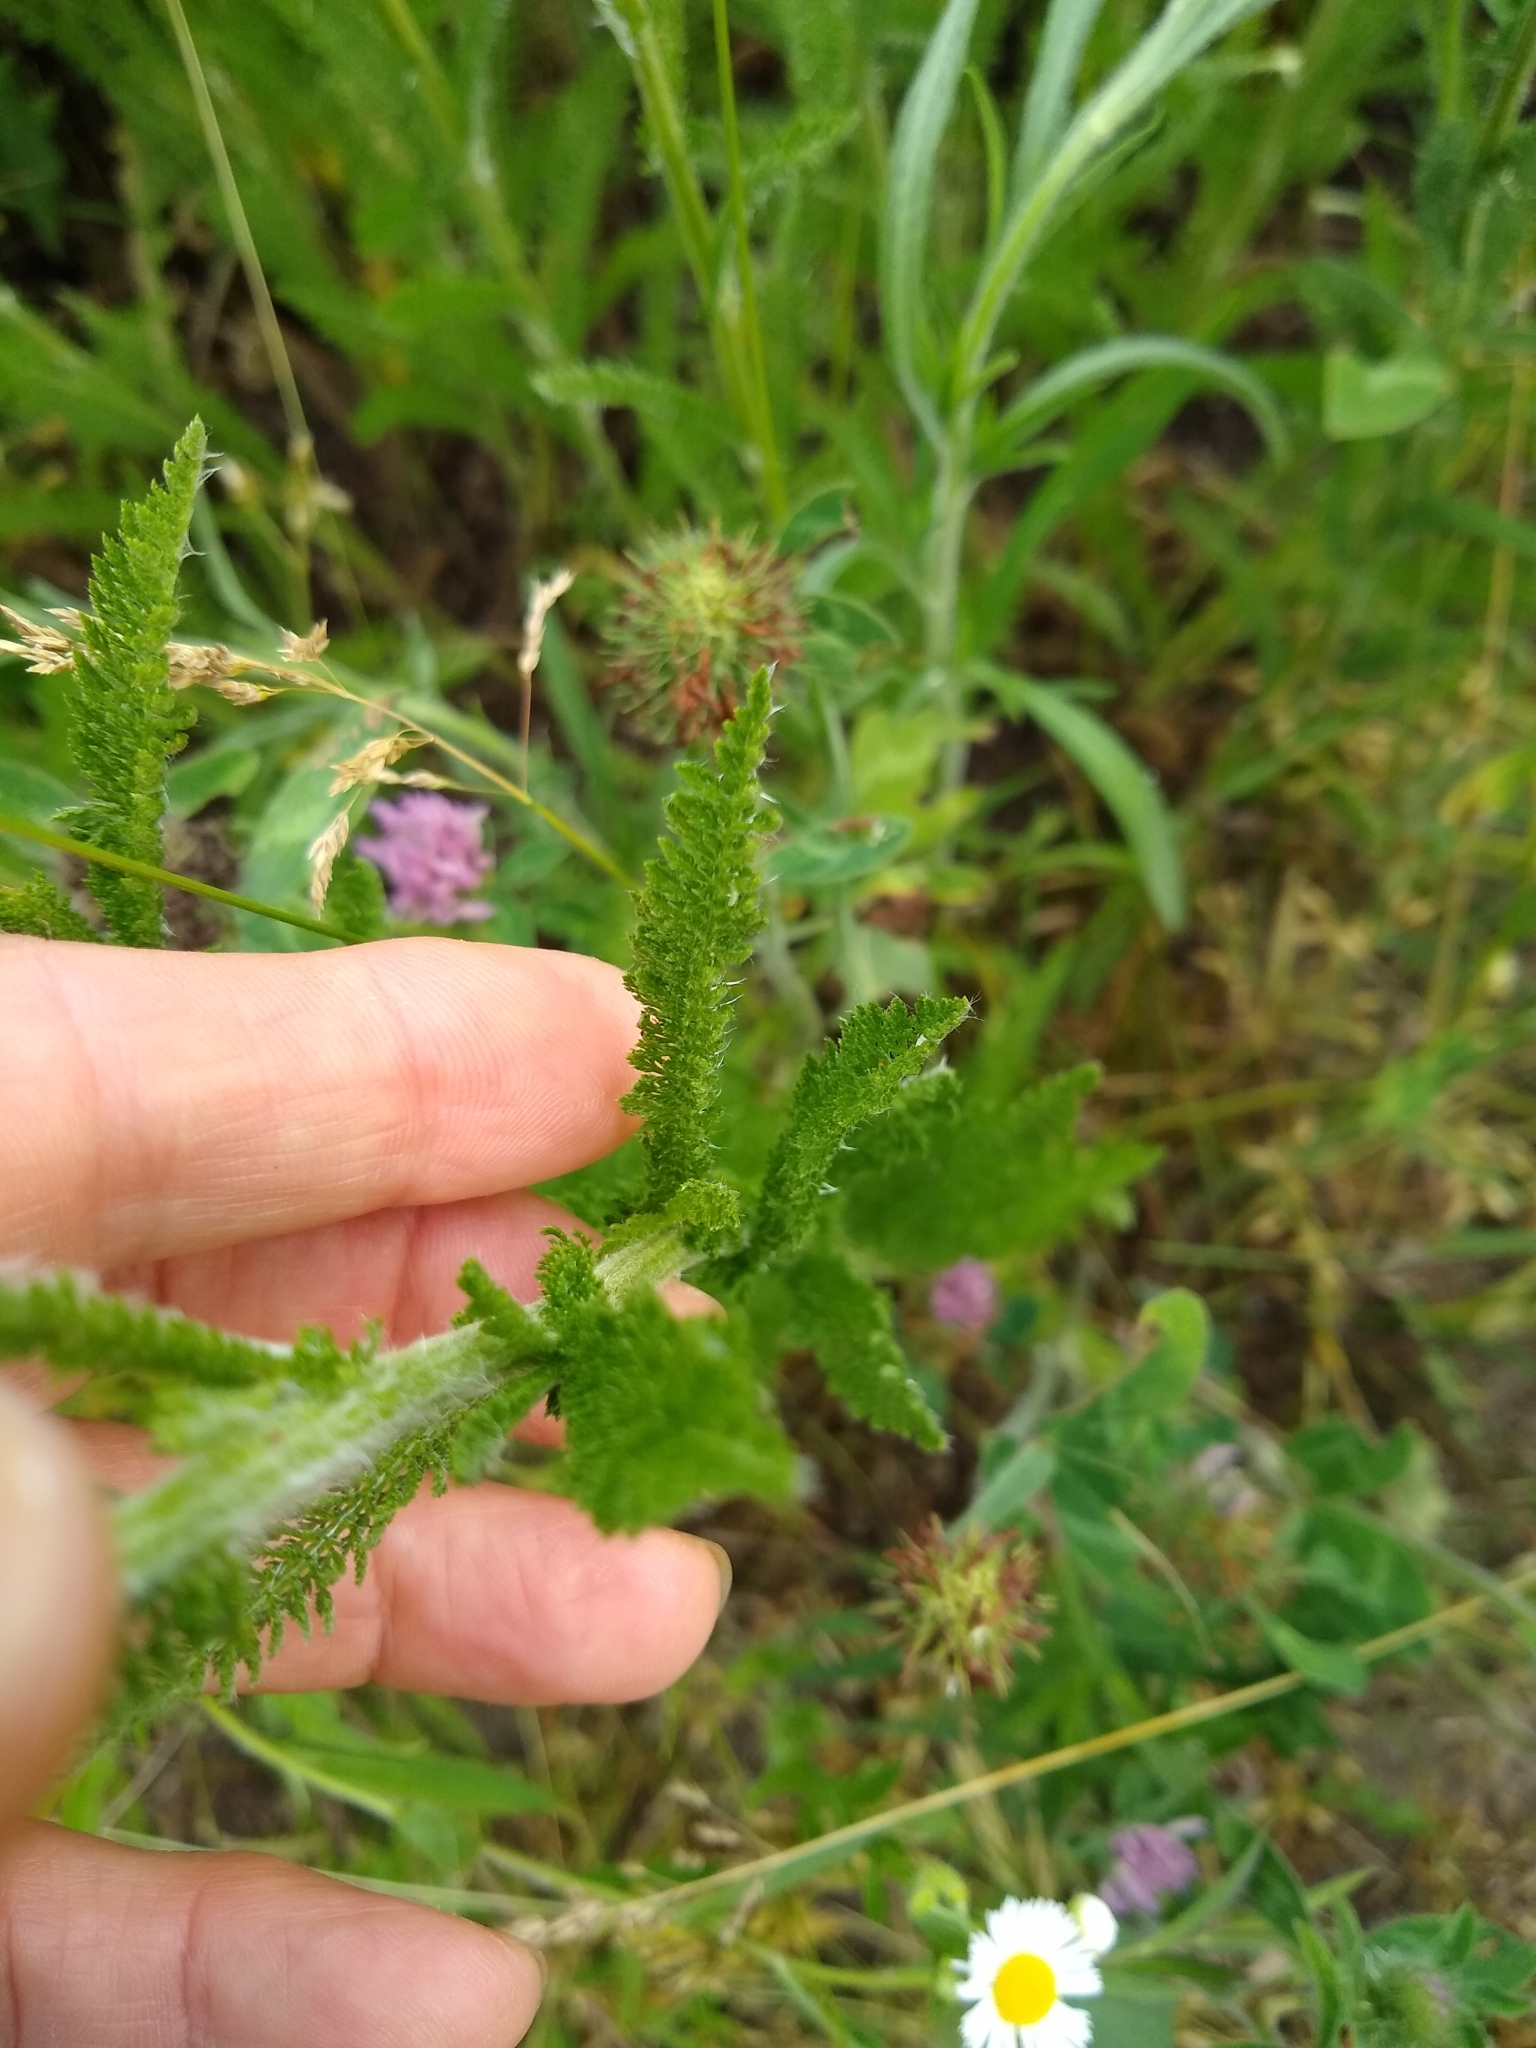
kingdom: Plantae
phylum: Tracheophyta
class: Magnoliopsida
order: Asterales
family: Asteraceae
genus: Achillea
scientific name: Achillea millefolium
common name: Yarrow
